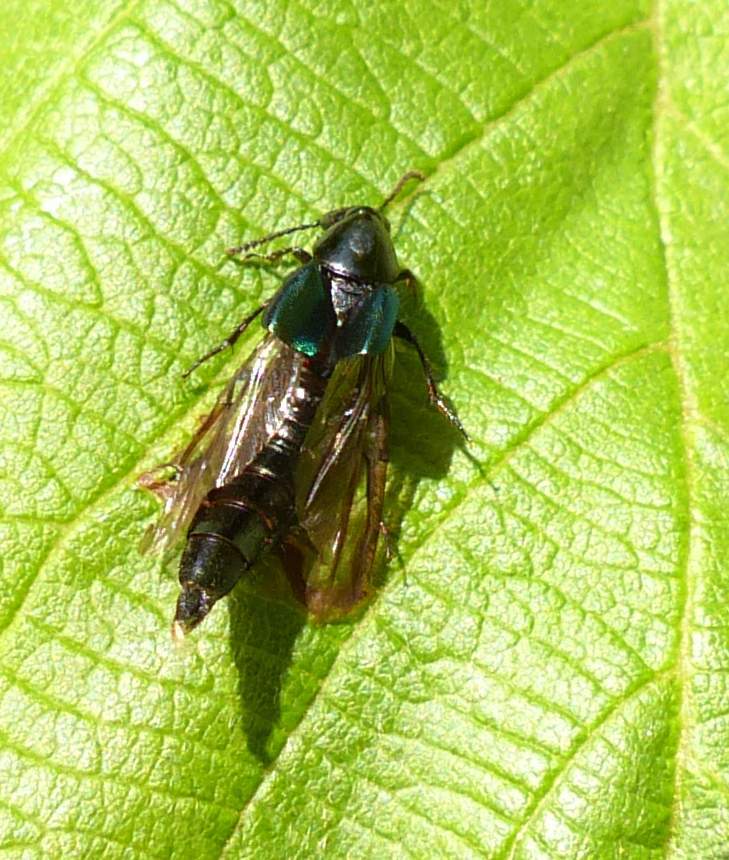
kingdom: Animalia
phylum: Arthropoda
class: Insecta
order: Coleoptera
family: Staphylinidae
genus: Philonthus
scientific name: Philonthus caeruleipennis
